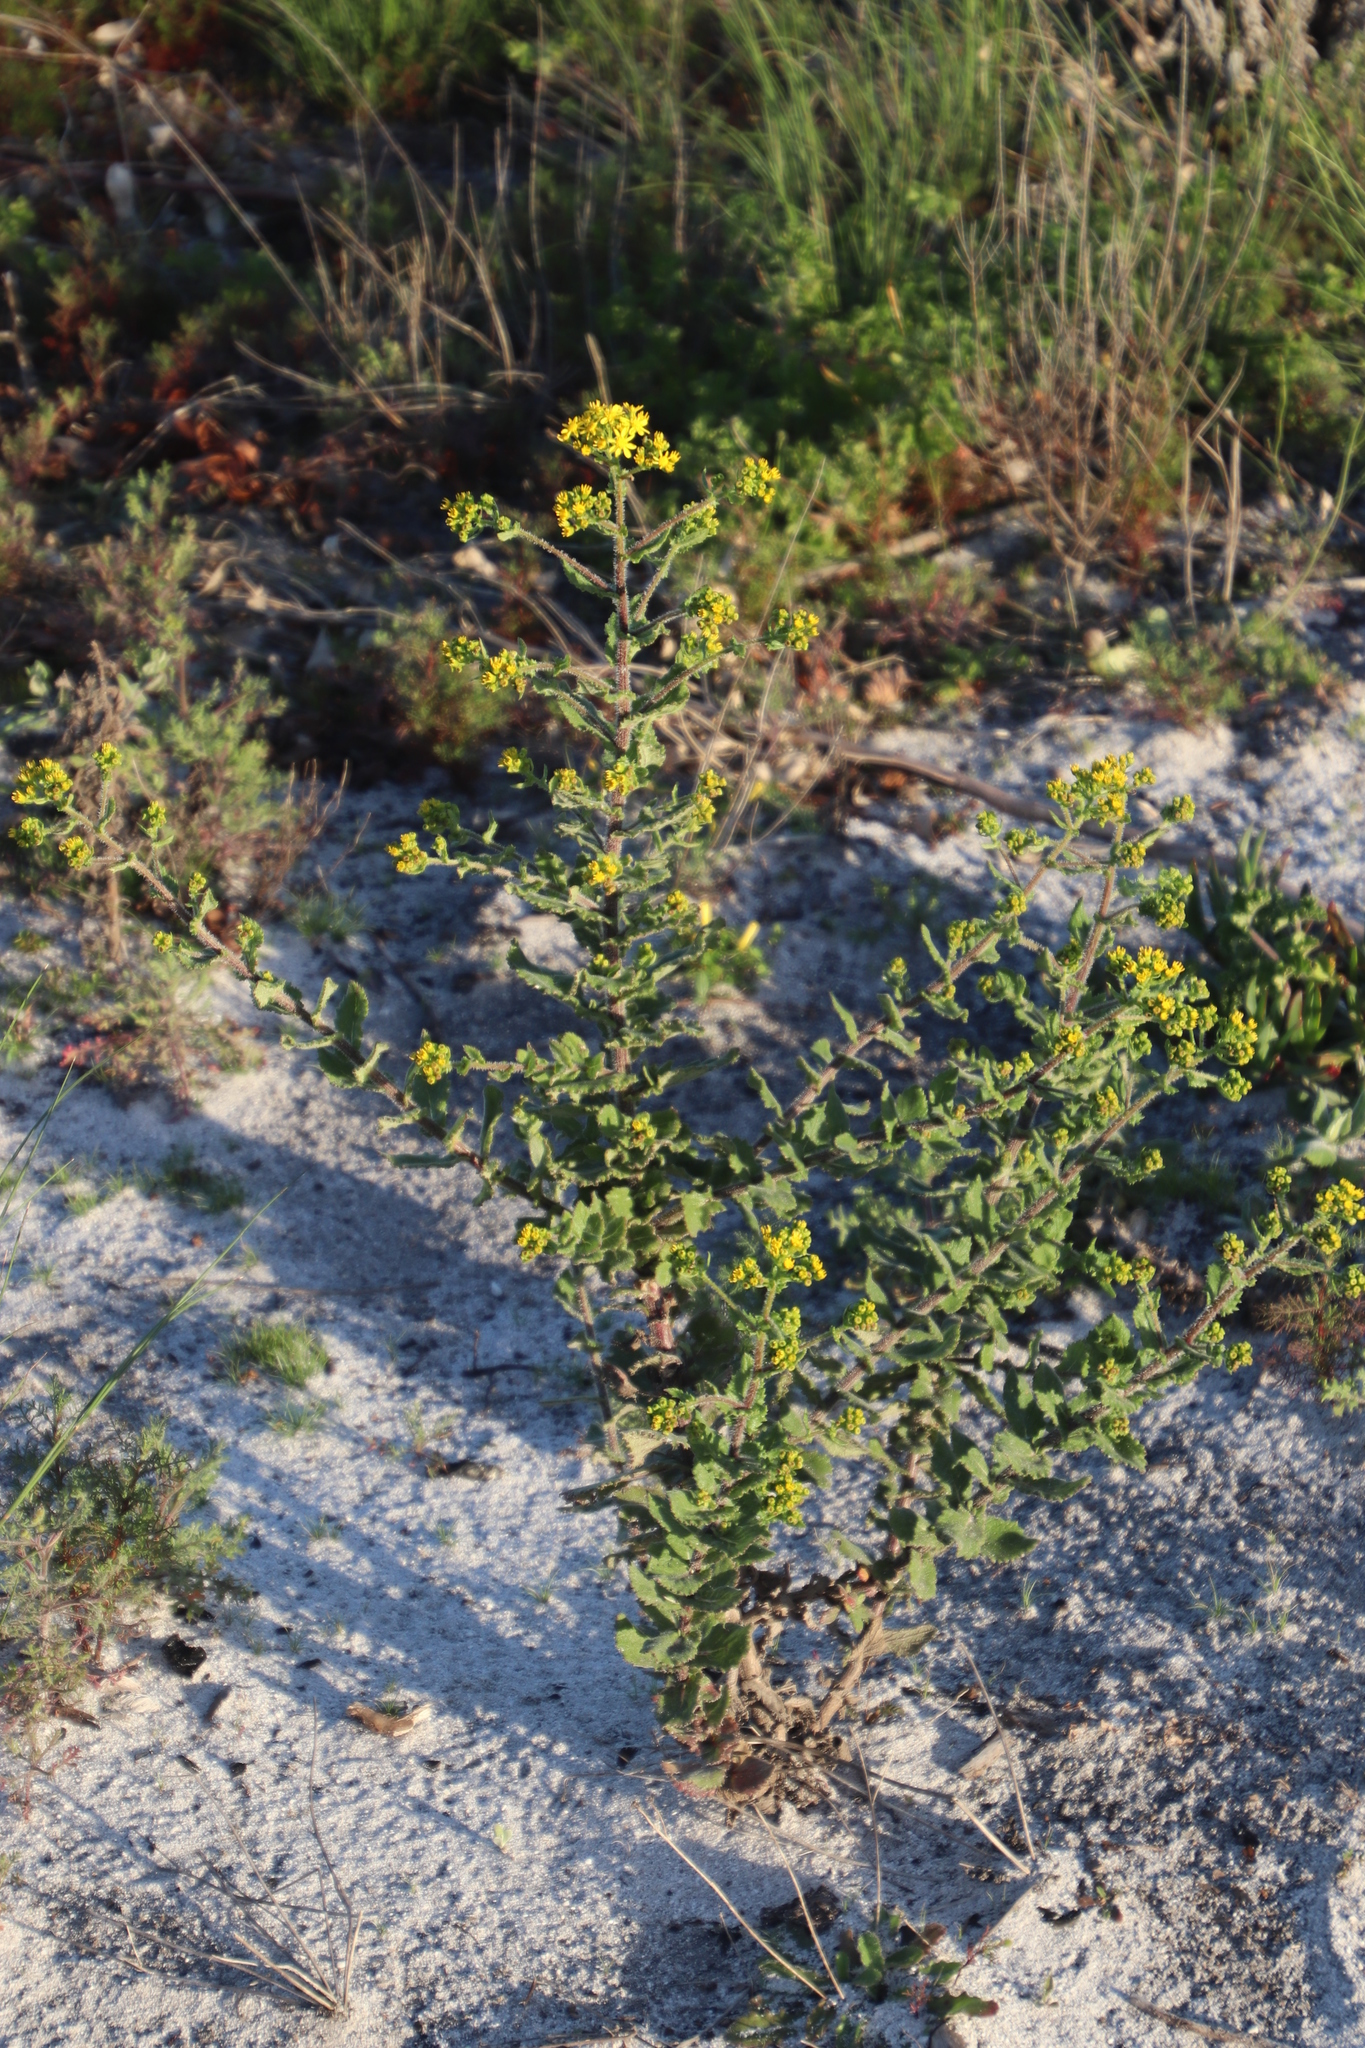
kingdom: Plantae
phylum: Tracheophyta
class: Magnoliopsida
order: Asterales
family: Asteraceae
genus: Senecio
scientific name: Senecio rigidus
